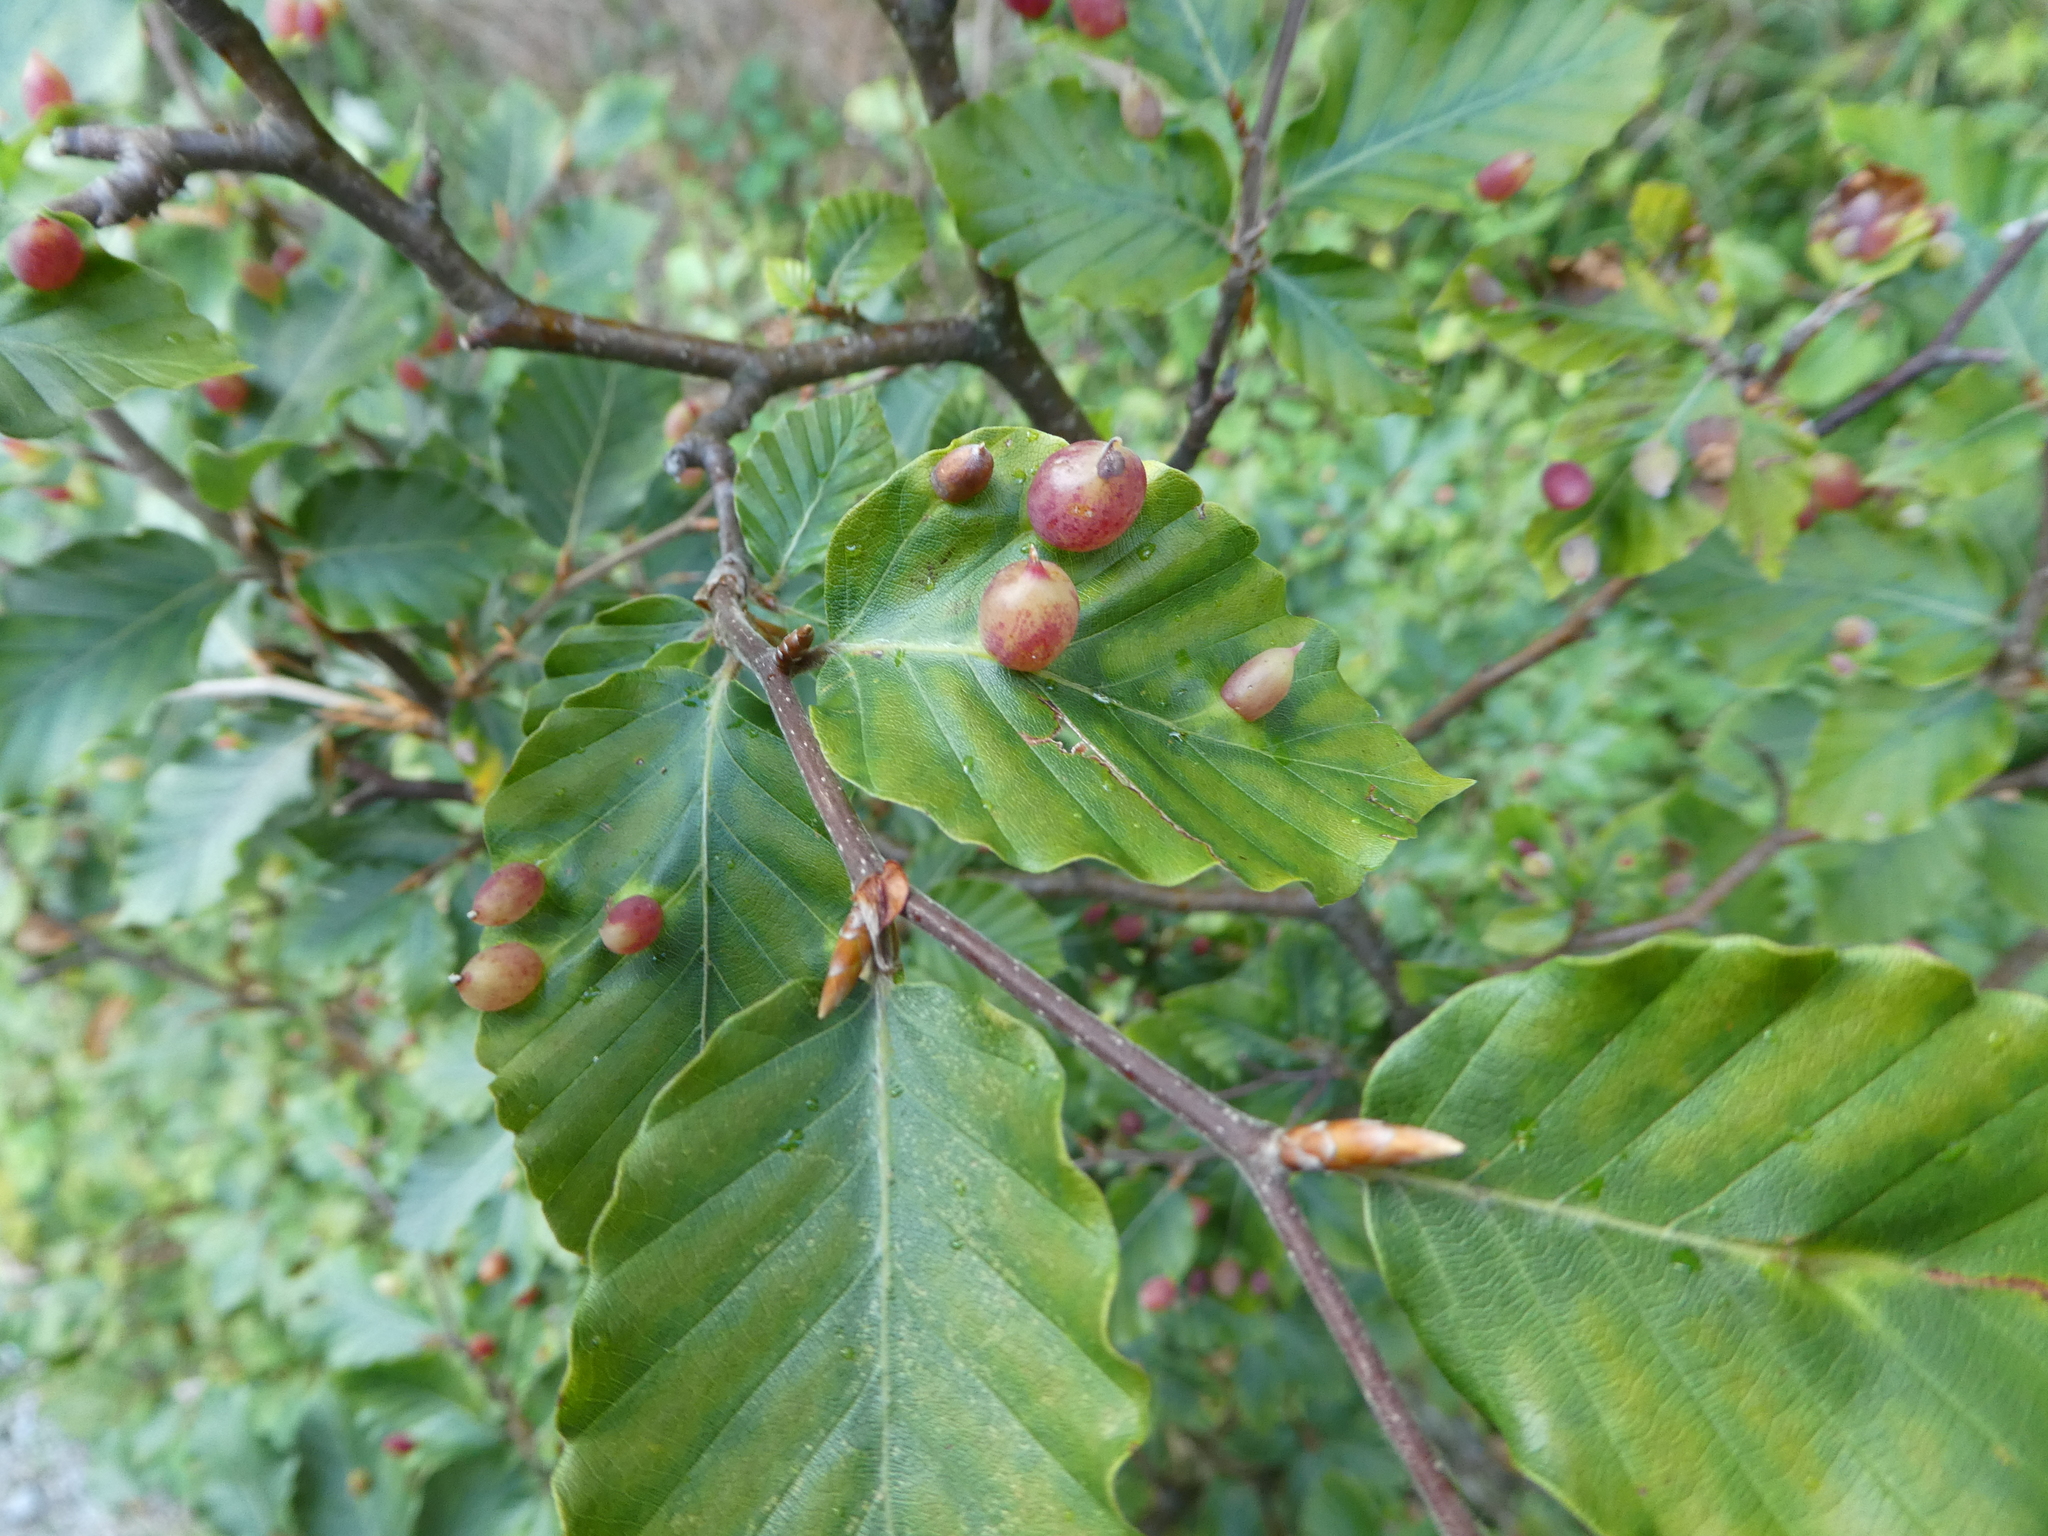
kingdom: Animalia
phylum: Arthropoda
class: Insecta
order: Diptera
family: Cecidomyiidae
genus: Mikiola
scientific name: Mikiola fagi
